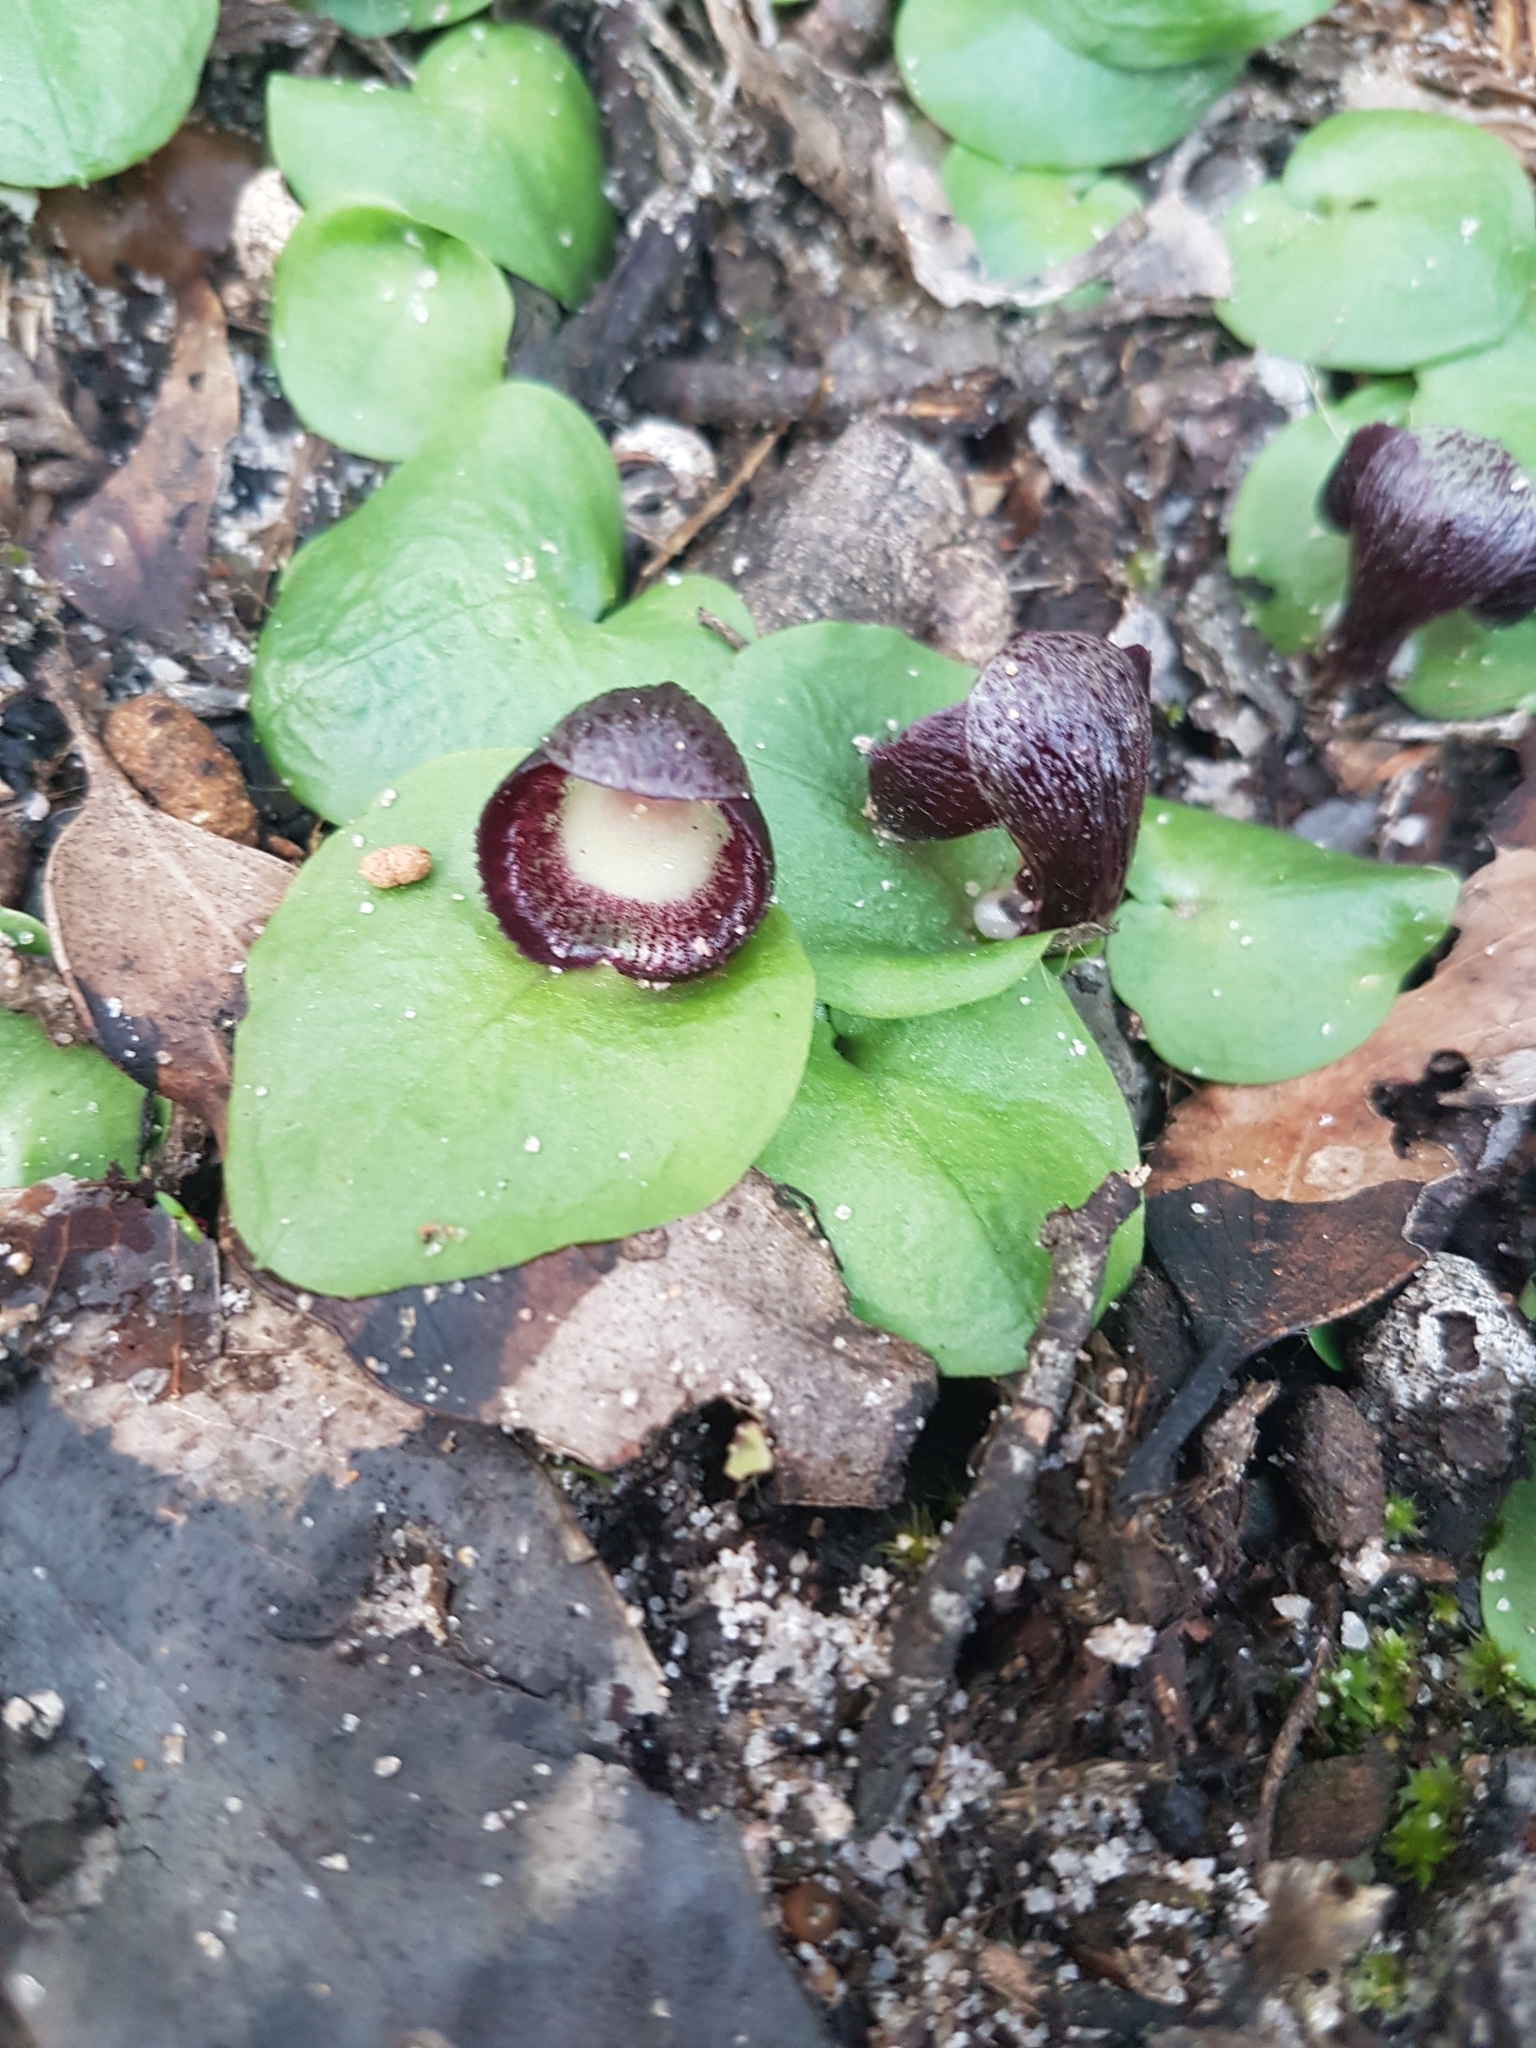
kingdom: Plantae
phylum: Tracheophyta
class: Liliopsida
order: Asparagales
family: Orchidaceae
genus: Corybas
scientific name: Corybas incurvus
